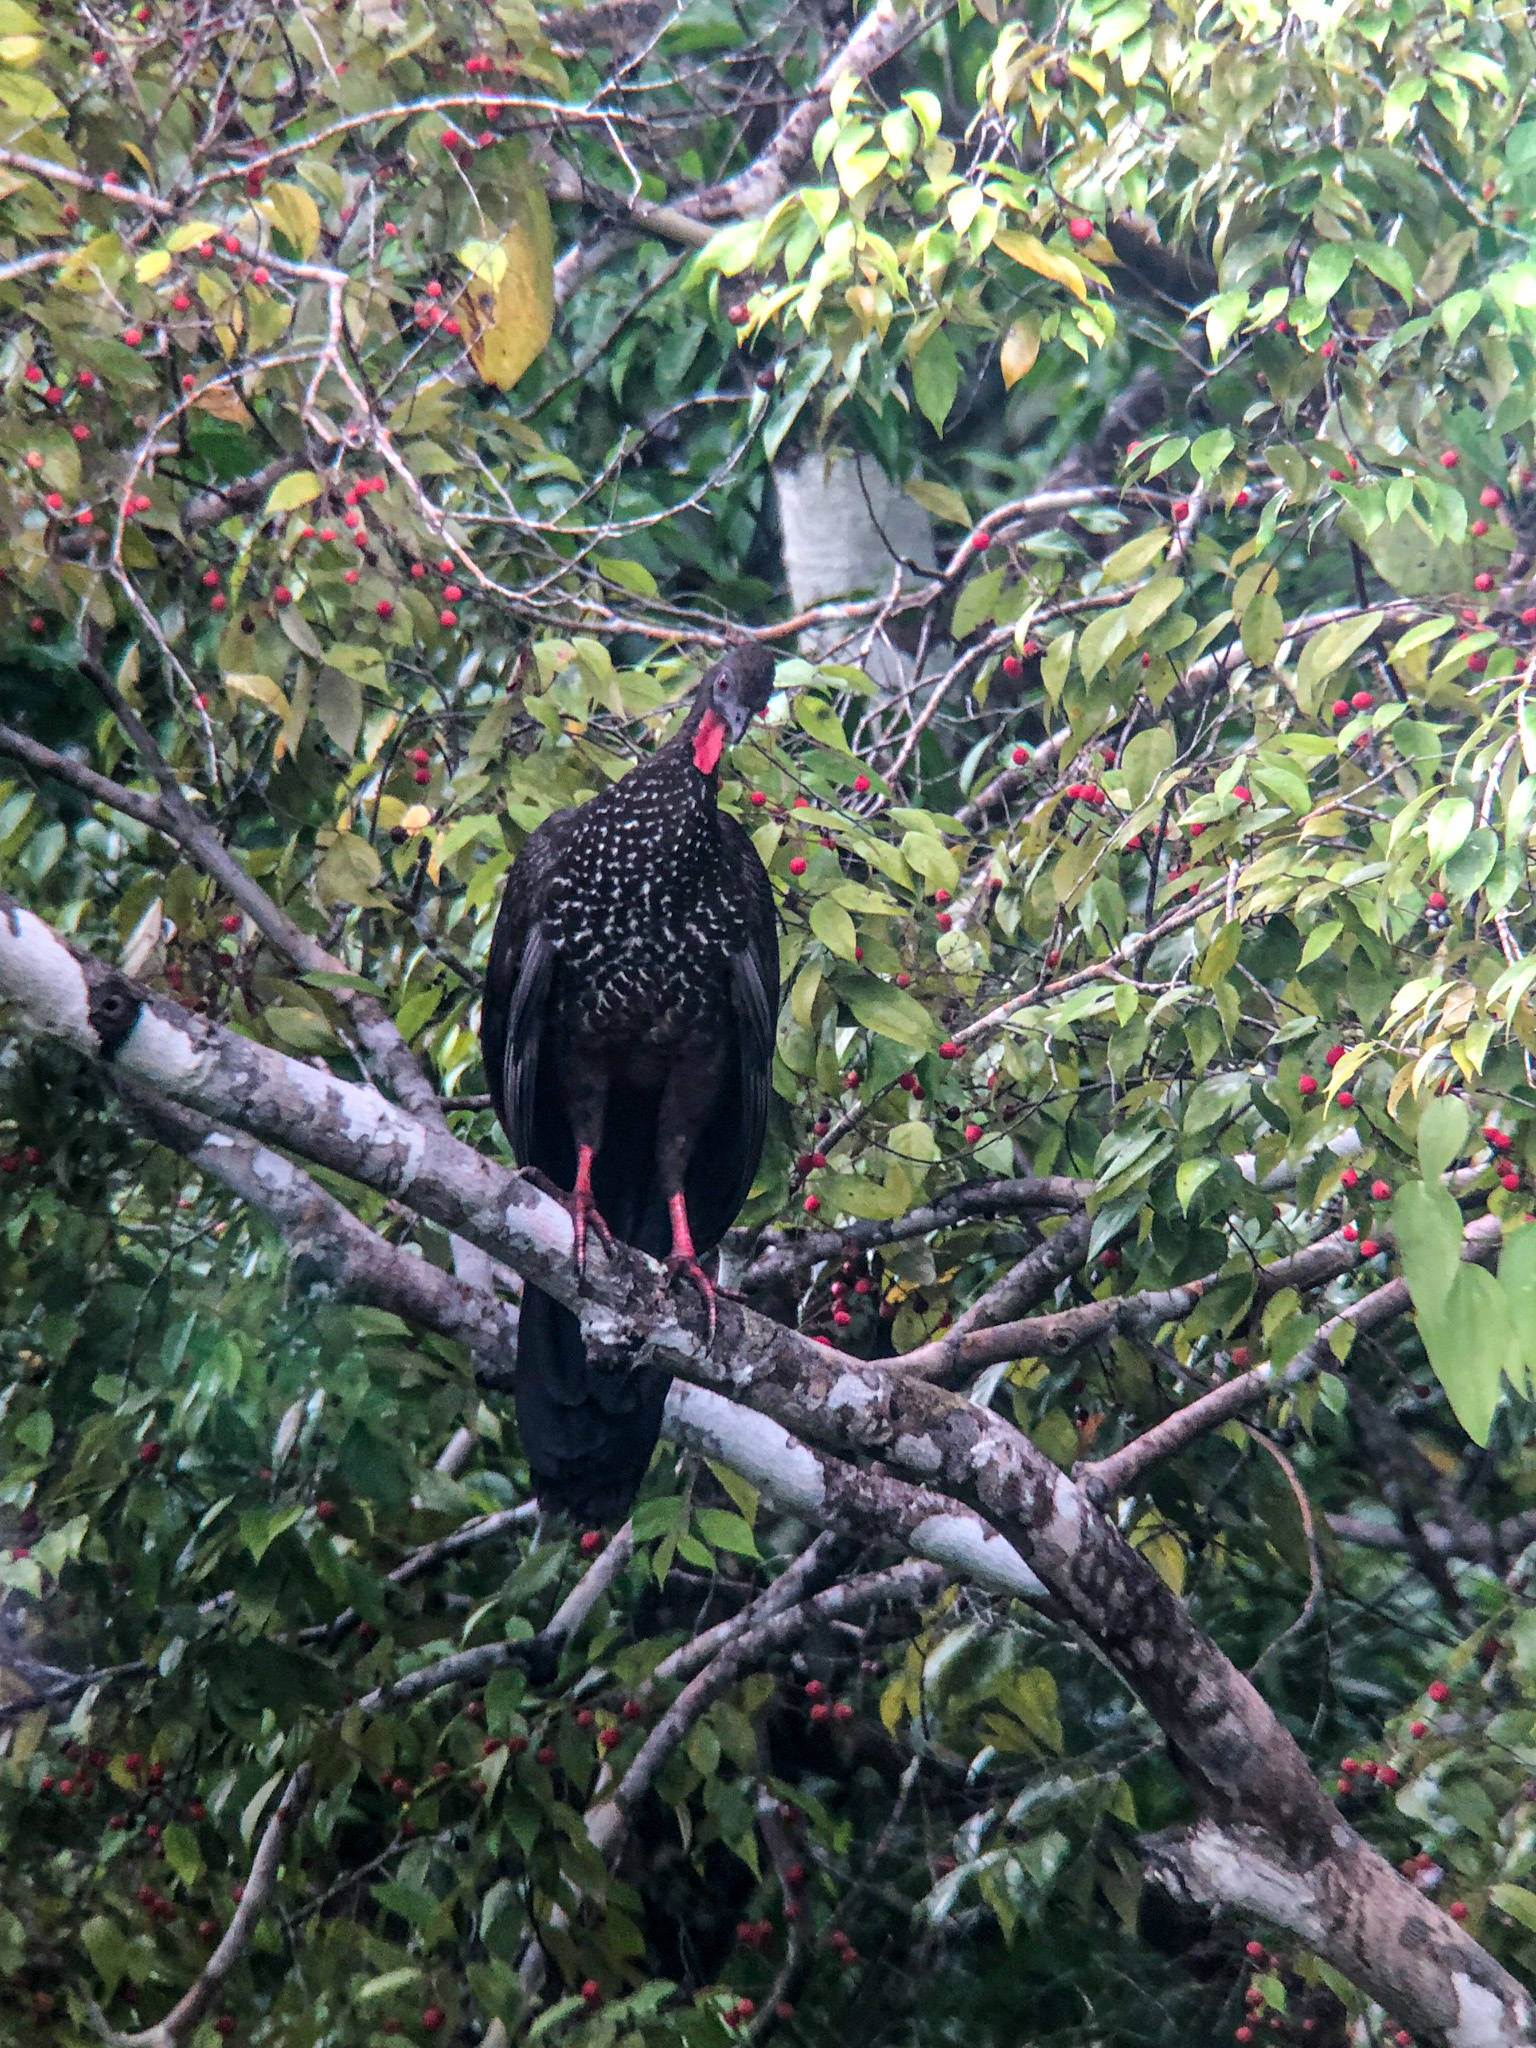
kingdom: Animalia
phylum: Chordata
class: Aves
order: Galliformes
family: Cracidae
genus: Penelope
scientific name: Penelope purpurascens
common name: Crested guan
